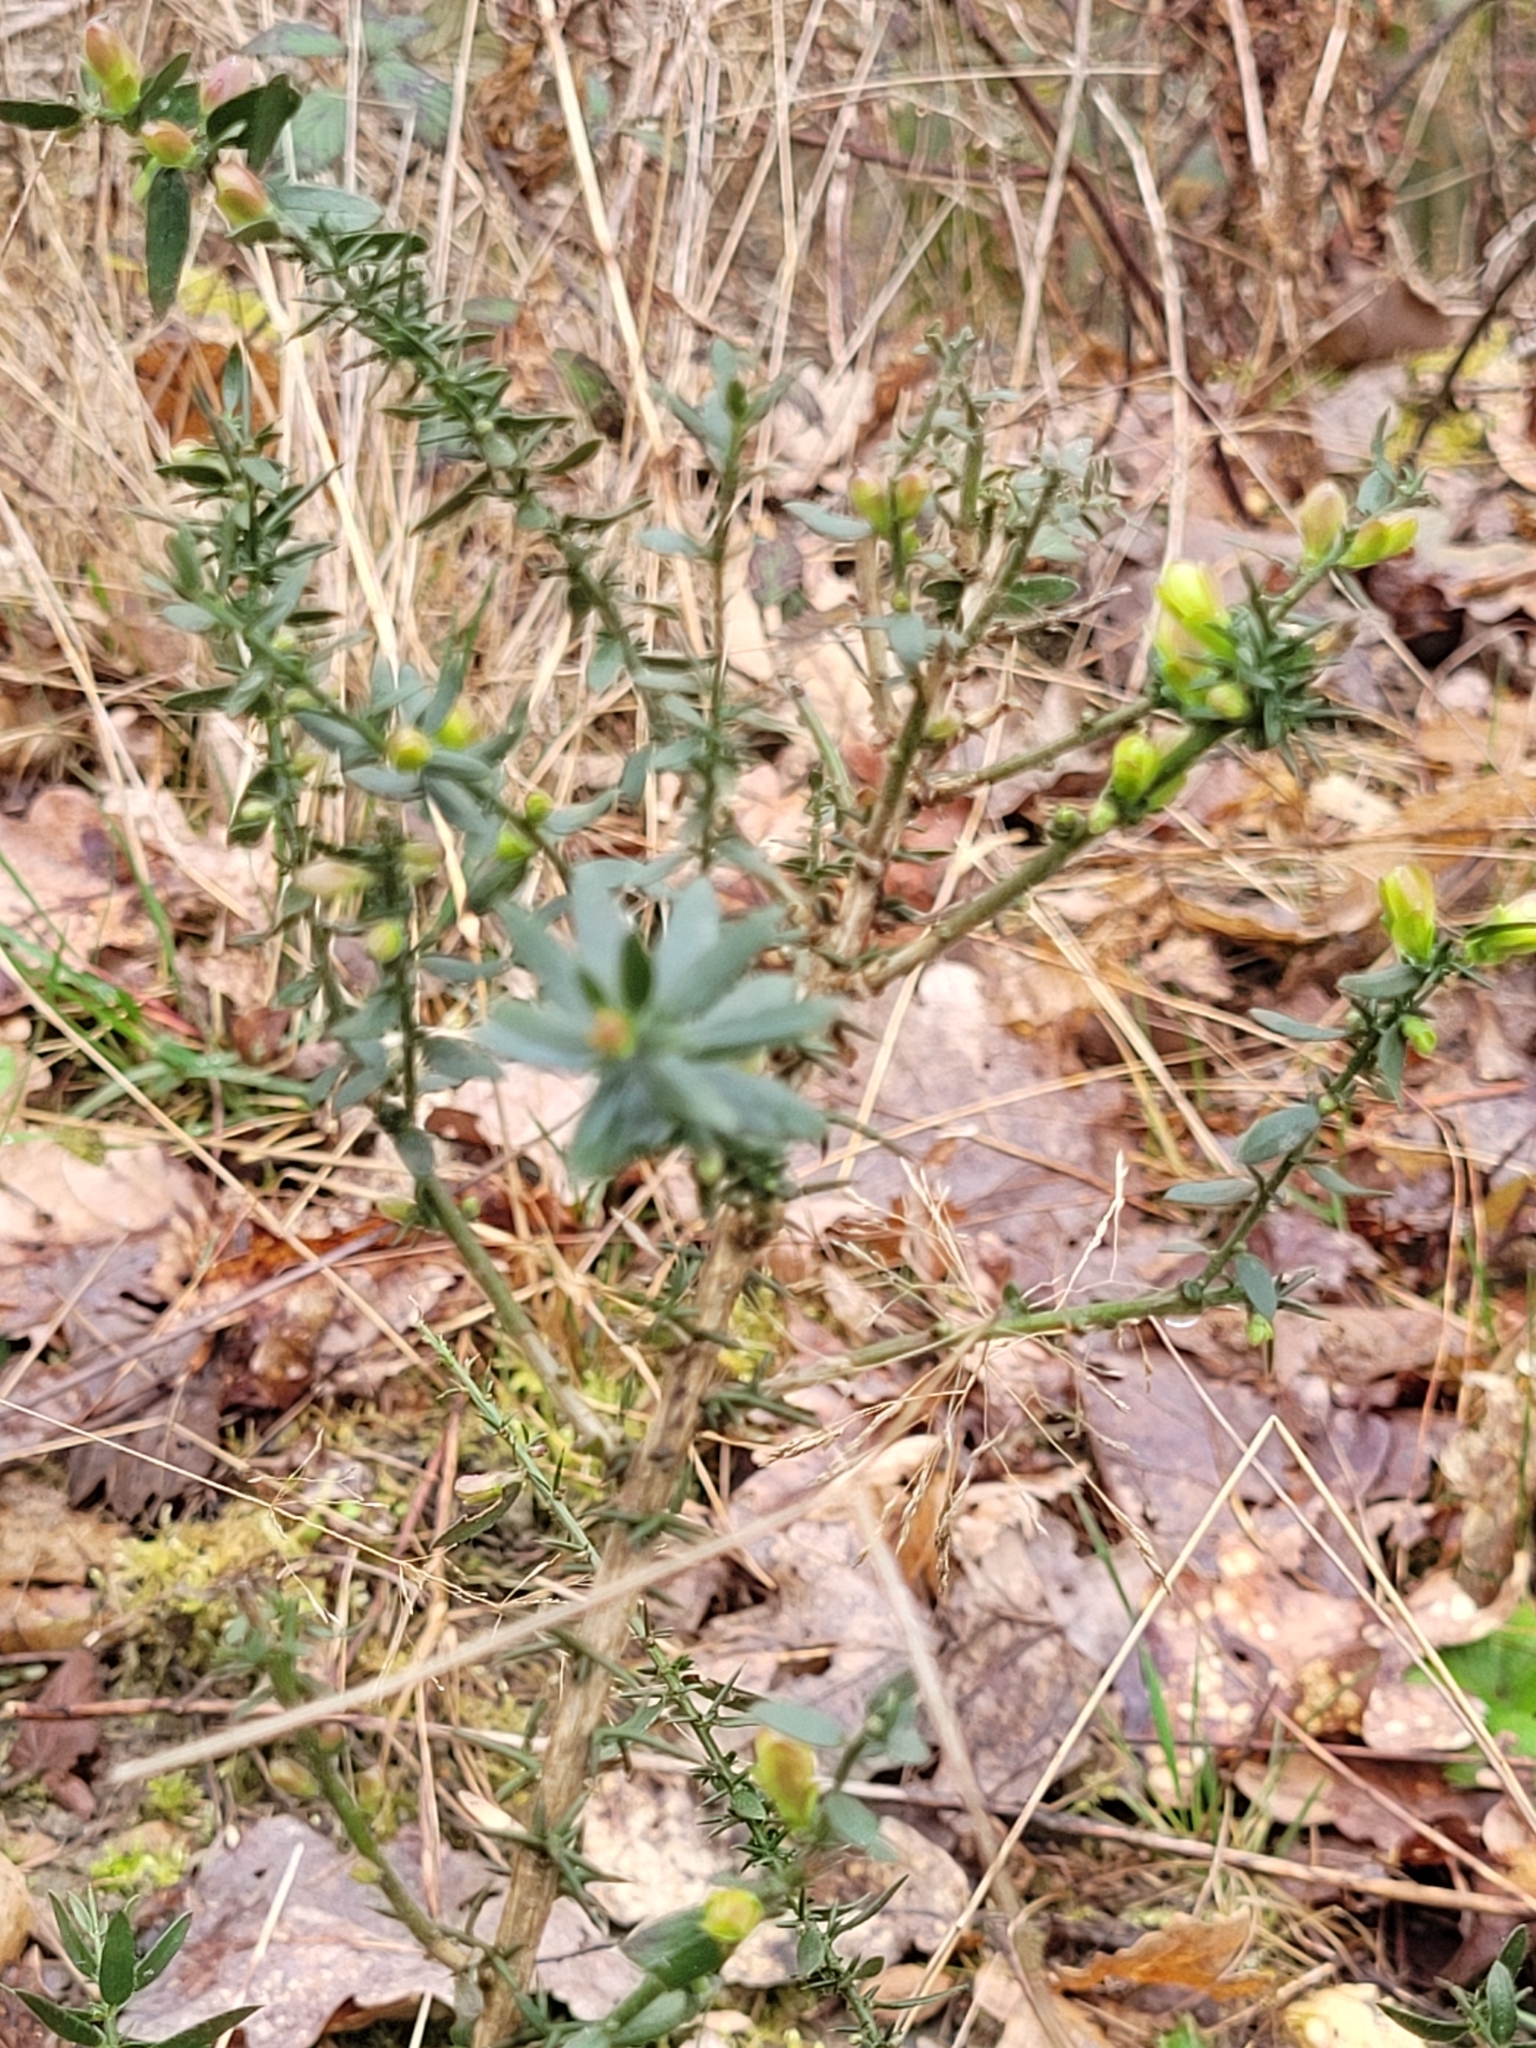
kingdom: Plantae
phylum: Tracheophyta
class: Magnoliopsida
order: Fabales
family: Fabaceae
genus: Genista
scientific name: Genista germanica
